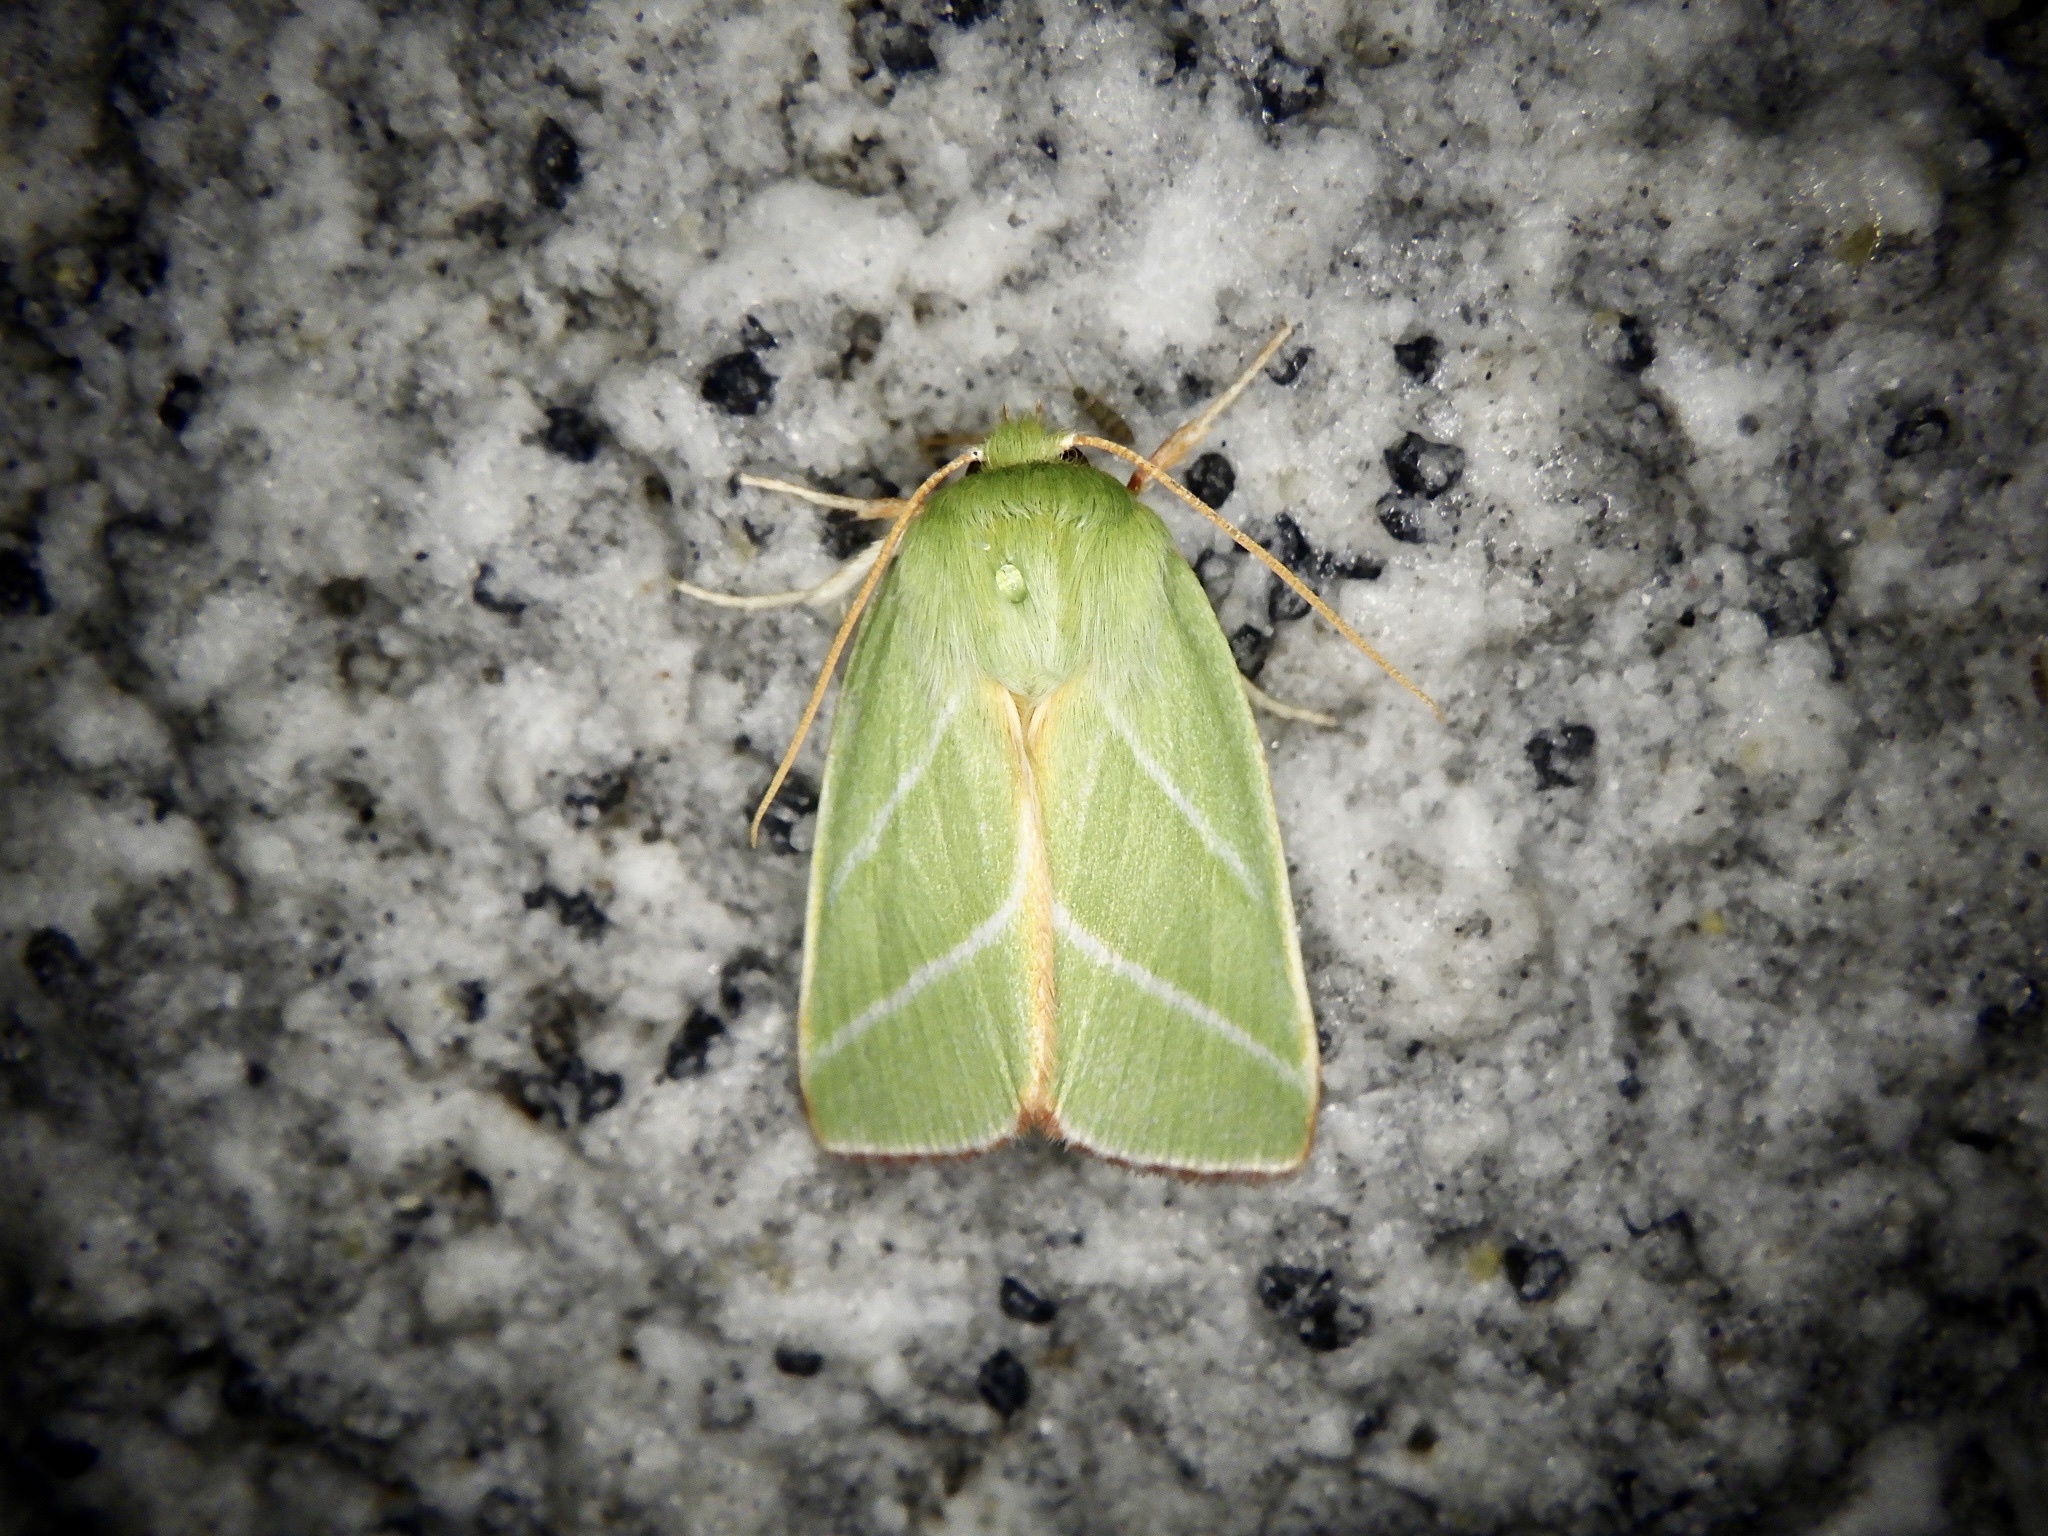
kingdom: Animalia
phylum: Arthropoda
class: Insecta
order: Lepidoptera
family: Nolidae
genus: Pseudoips
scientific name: Pseudoips sylpha
